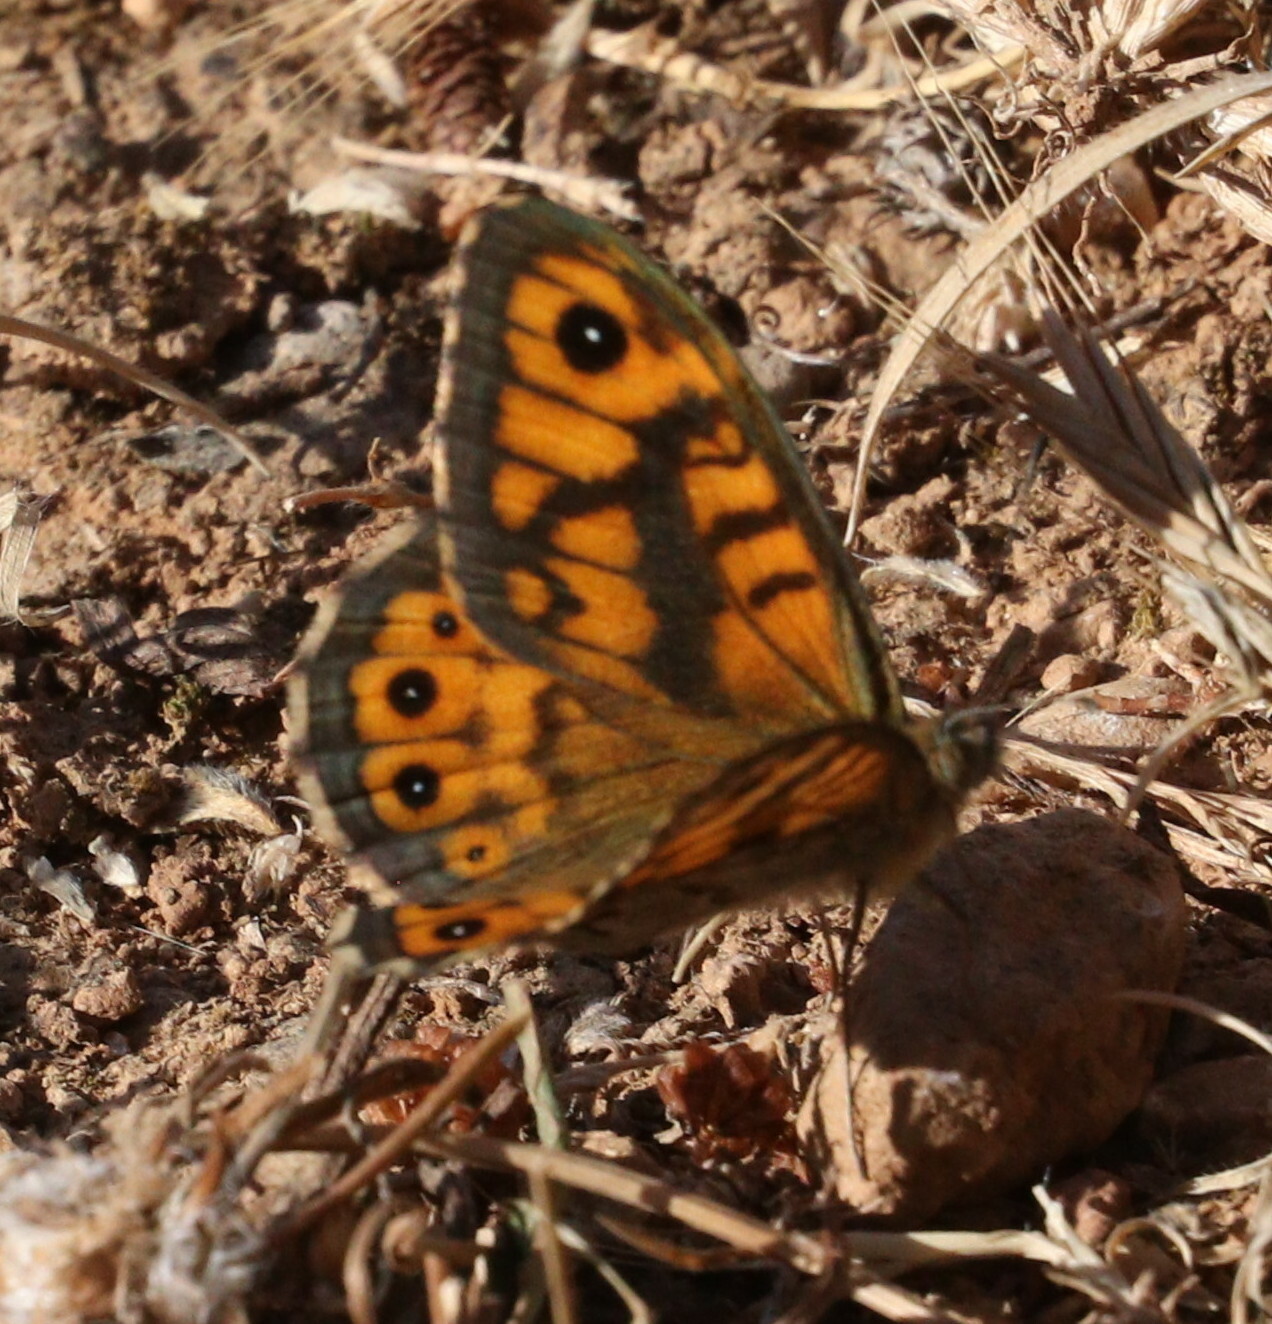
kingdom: Animalia
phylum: Arthropoda
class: Insecta
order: Lepidoptera
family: Nymphalidae
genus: Pararge
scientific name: Pararge Lasiommata megera
